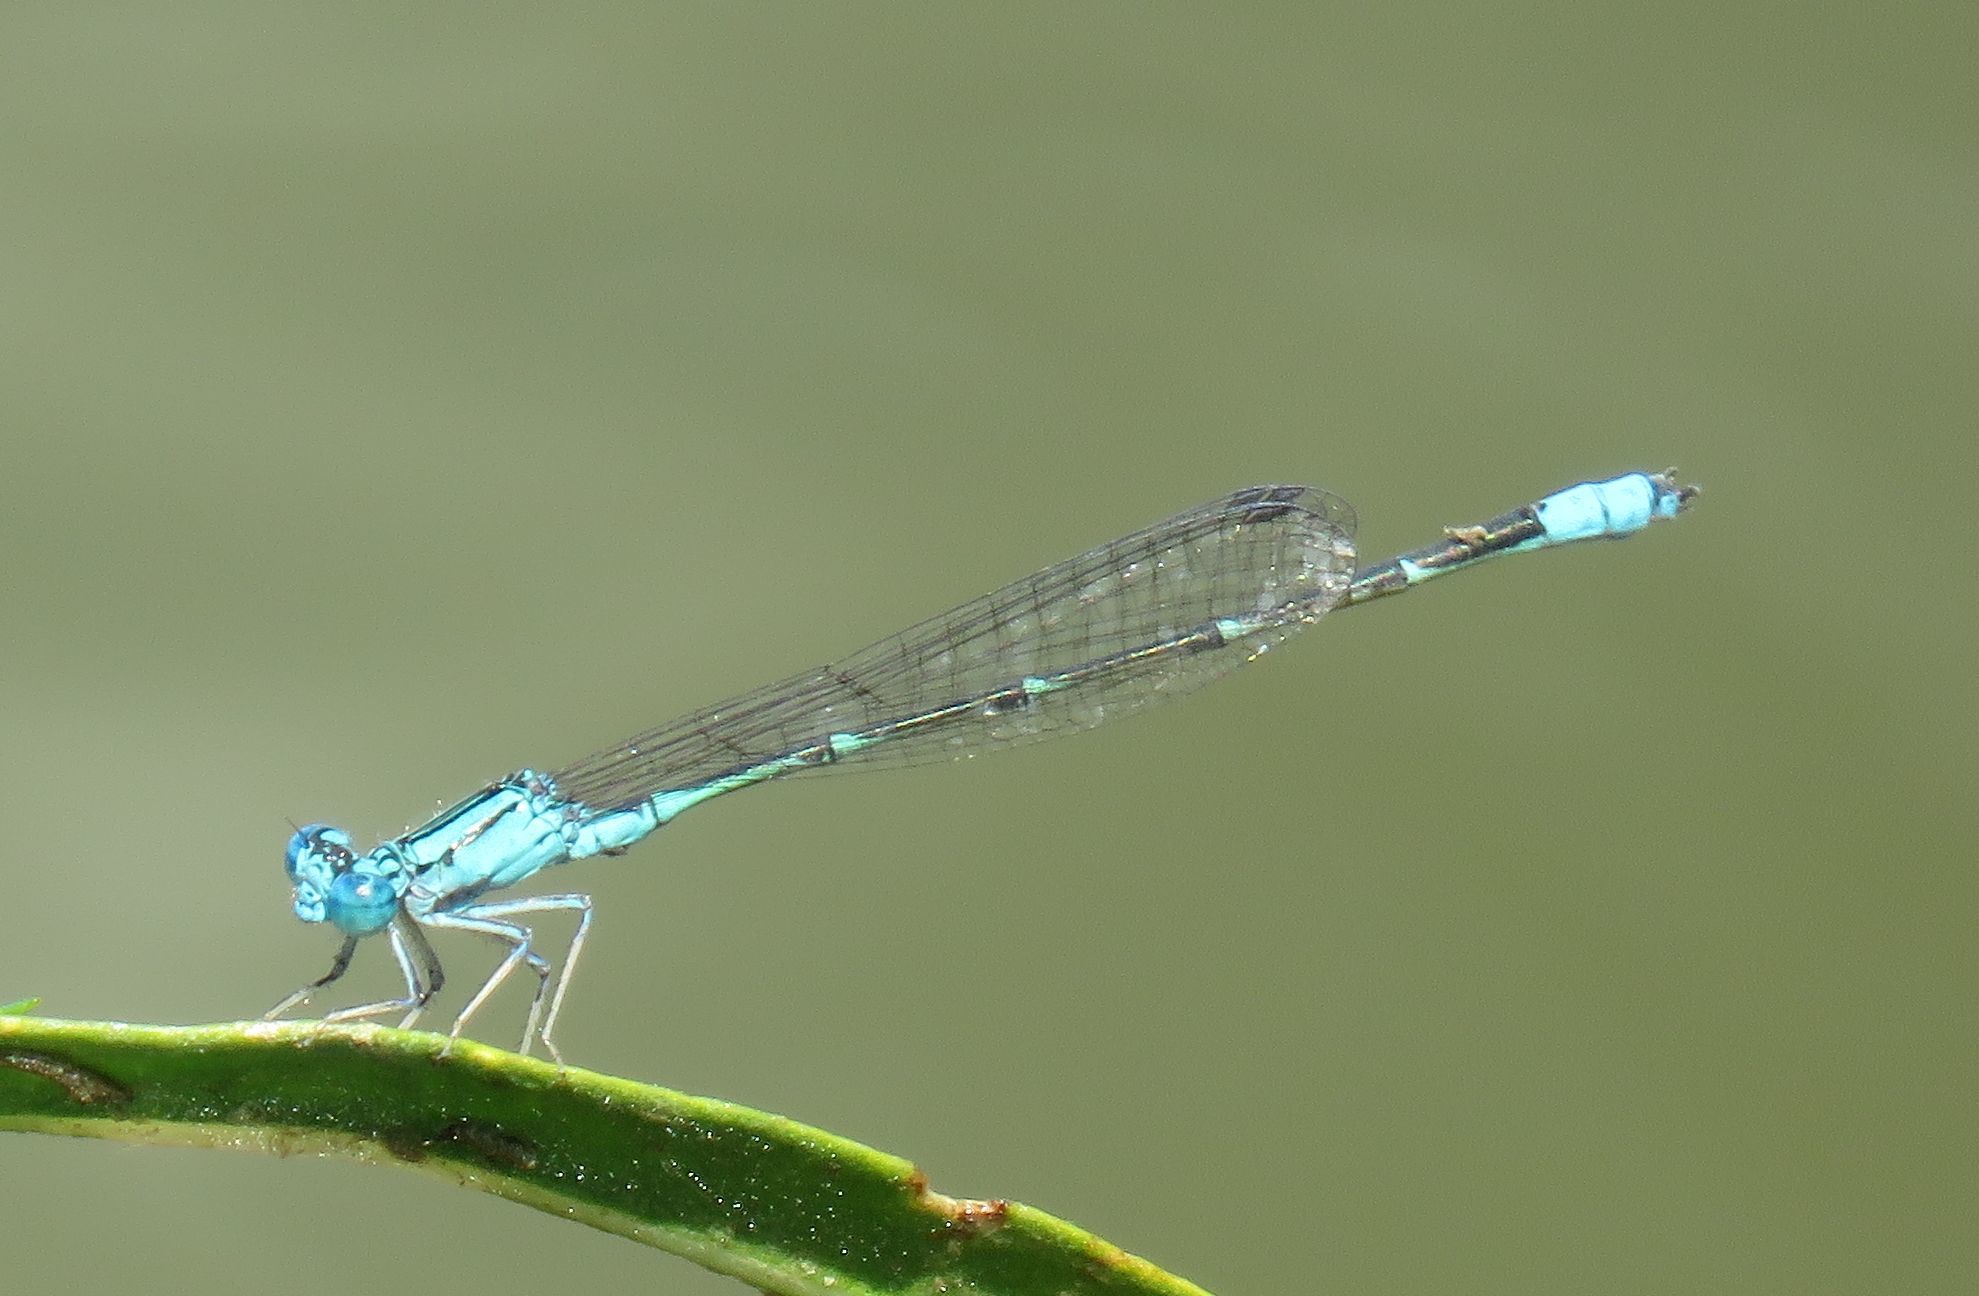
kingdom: Animalia
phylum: Arthropoda
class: Insecta
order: Odonata
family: Coenagrionidae
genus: Enallagma
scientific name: Enallagma traviatum
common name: Slender bluet
